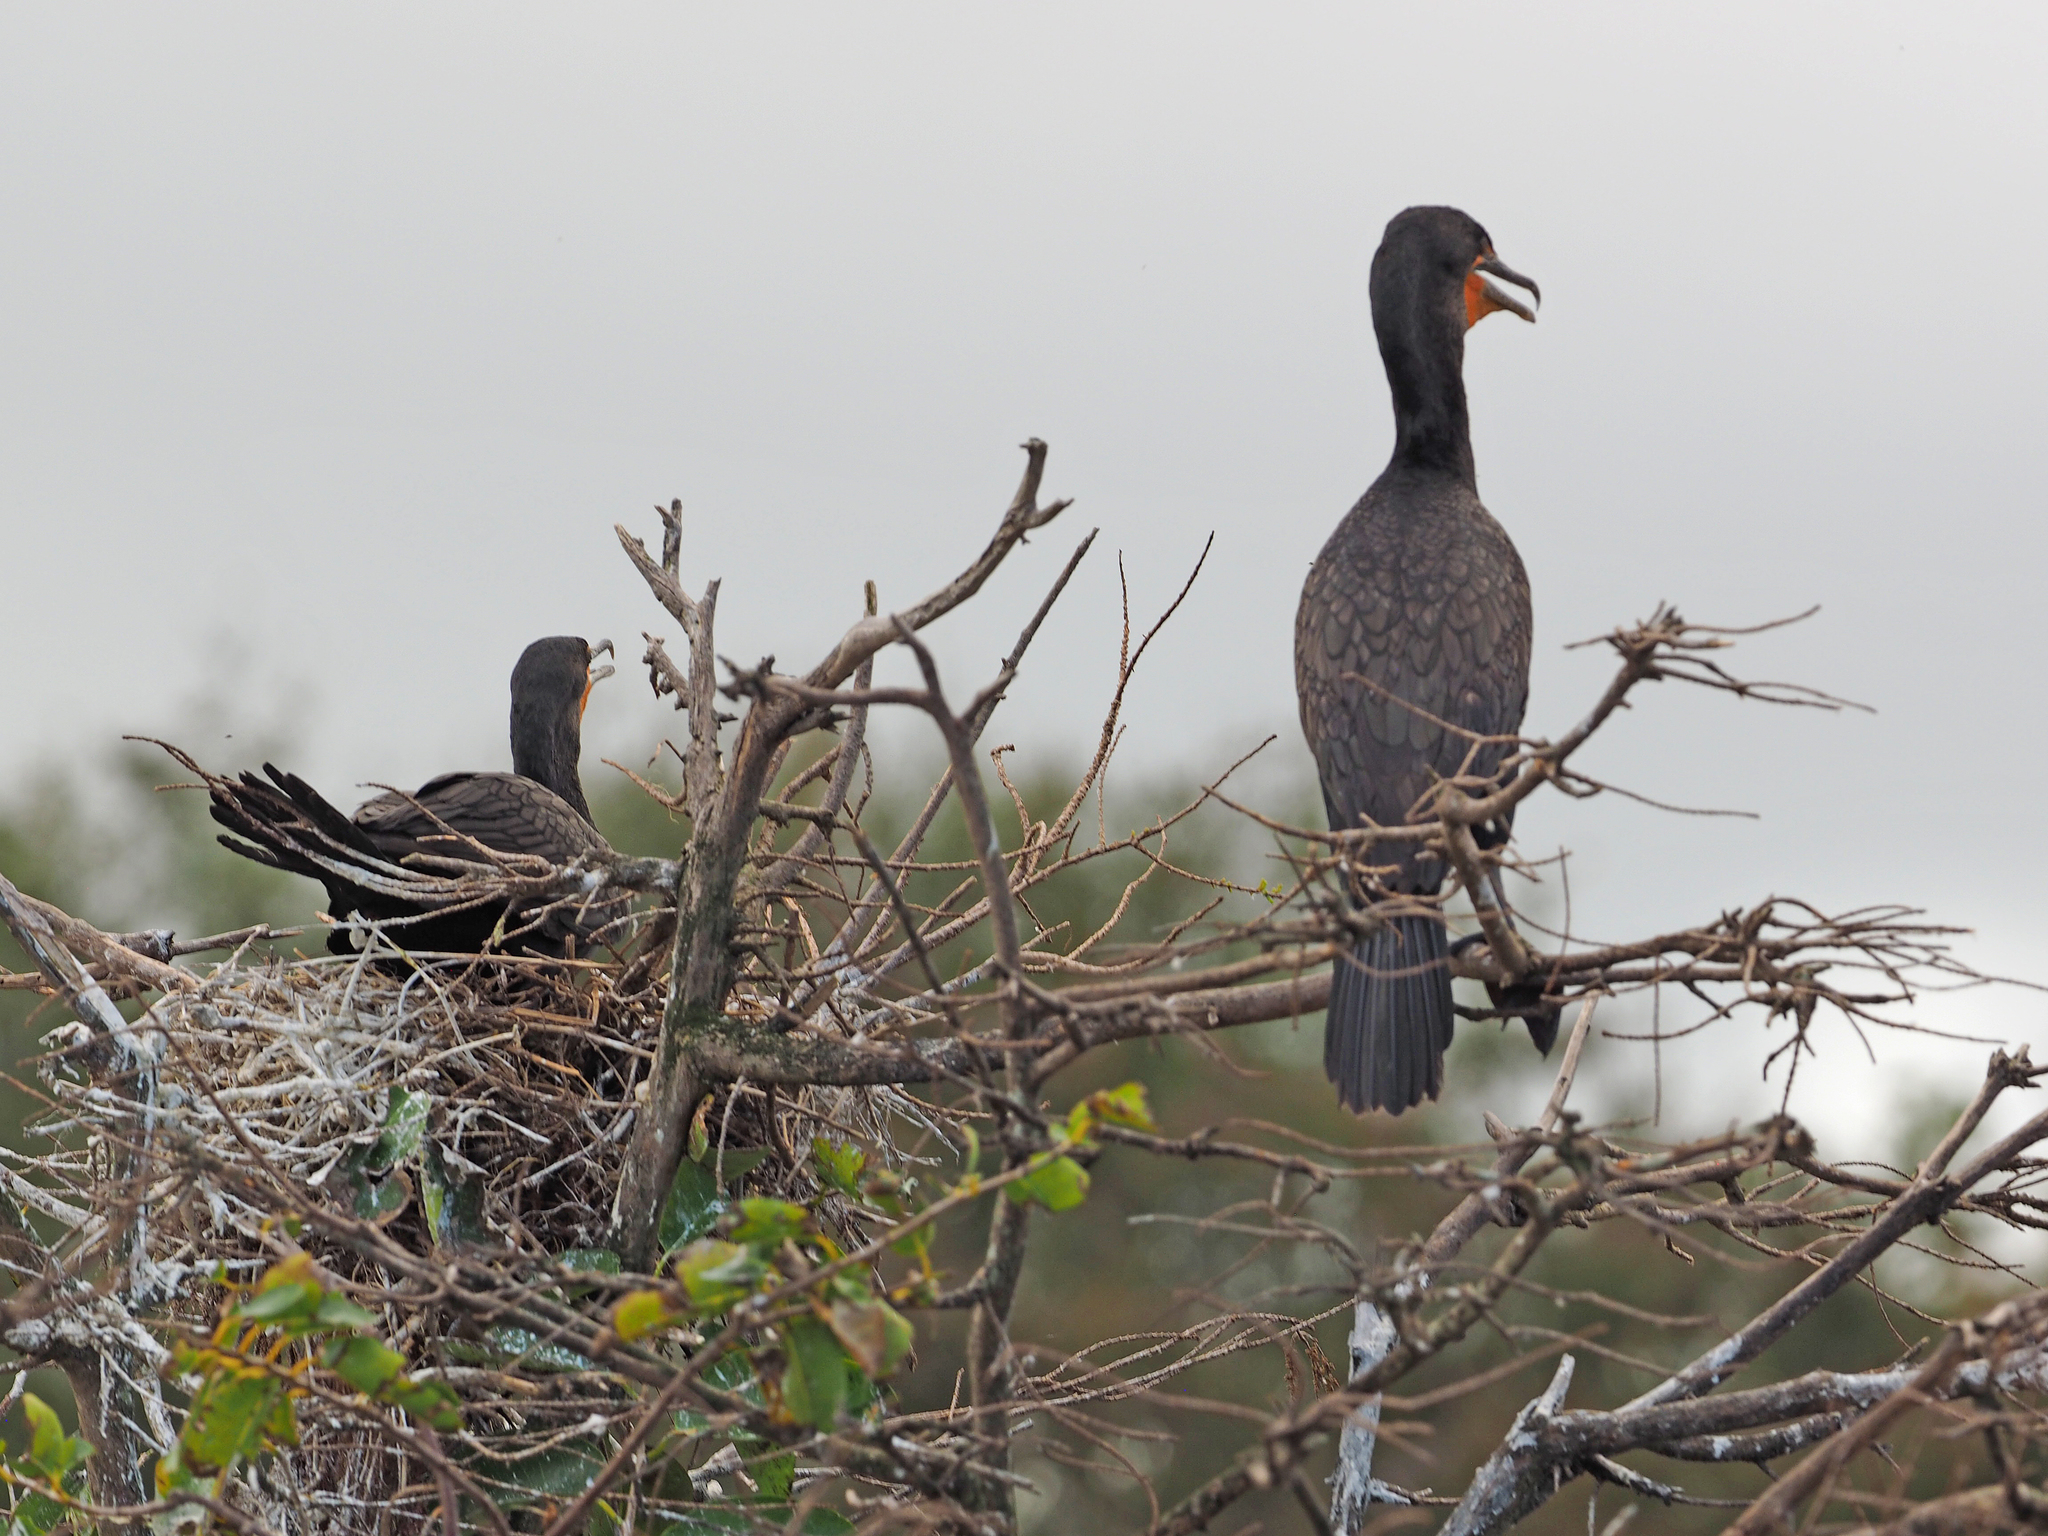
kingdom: Animalia
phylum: Chordata
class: Aves
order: Suliformes
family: Phalacrocoracidae
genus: Phalacrocorax
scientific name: Phalacrocorax auritus
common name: Double-crested cormorant
